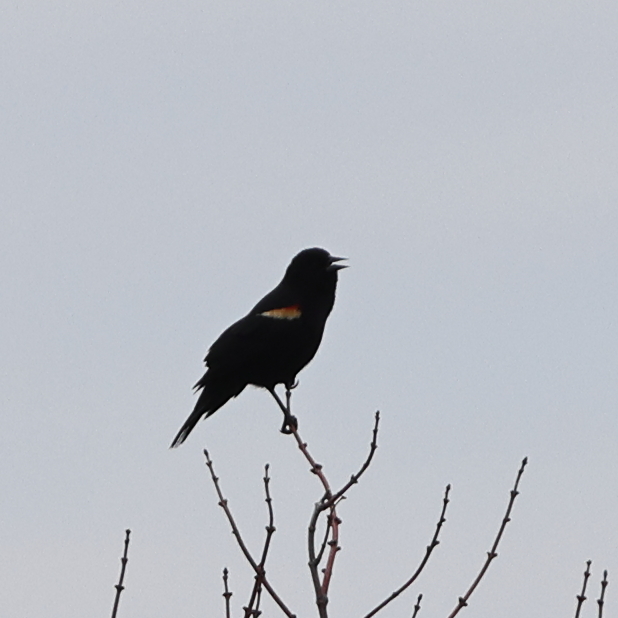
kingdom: Animalia
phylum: Chordata
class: Aves
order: Passeriformes
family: Icteridae
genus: Agelaius
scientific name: Agelaius phoeniceus
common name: Red-winged blackbird
